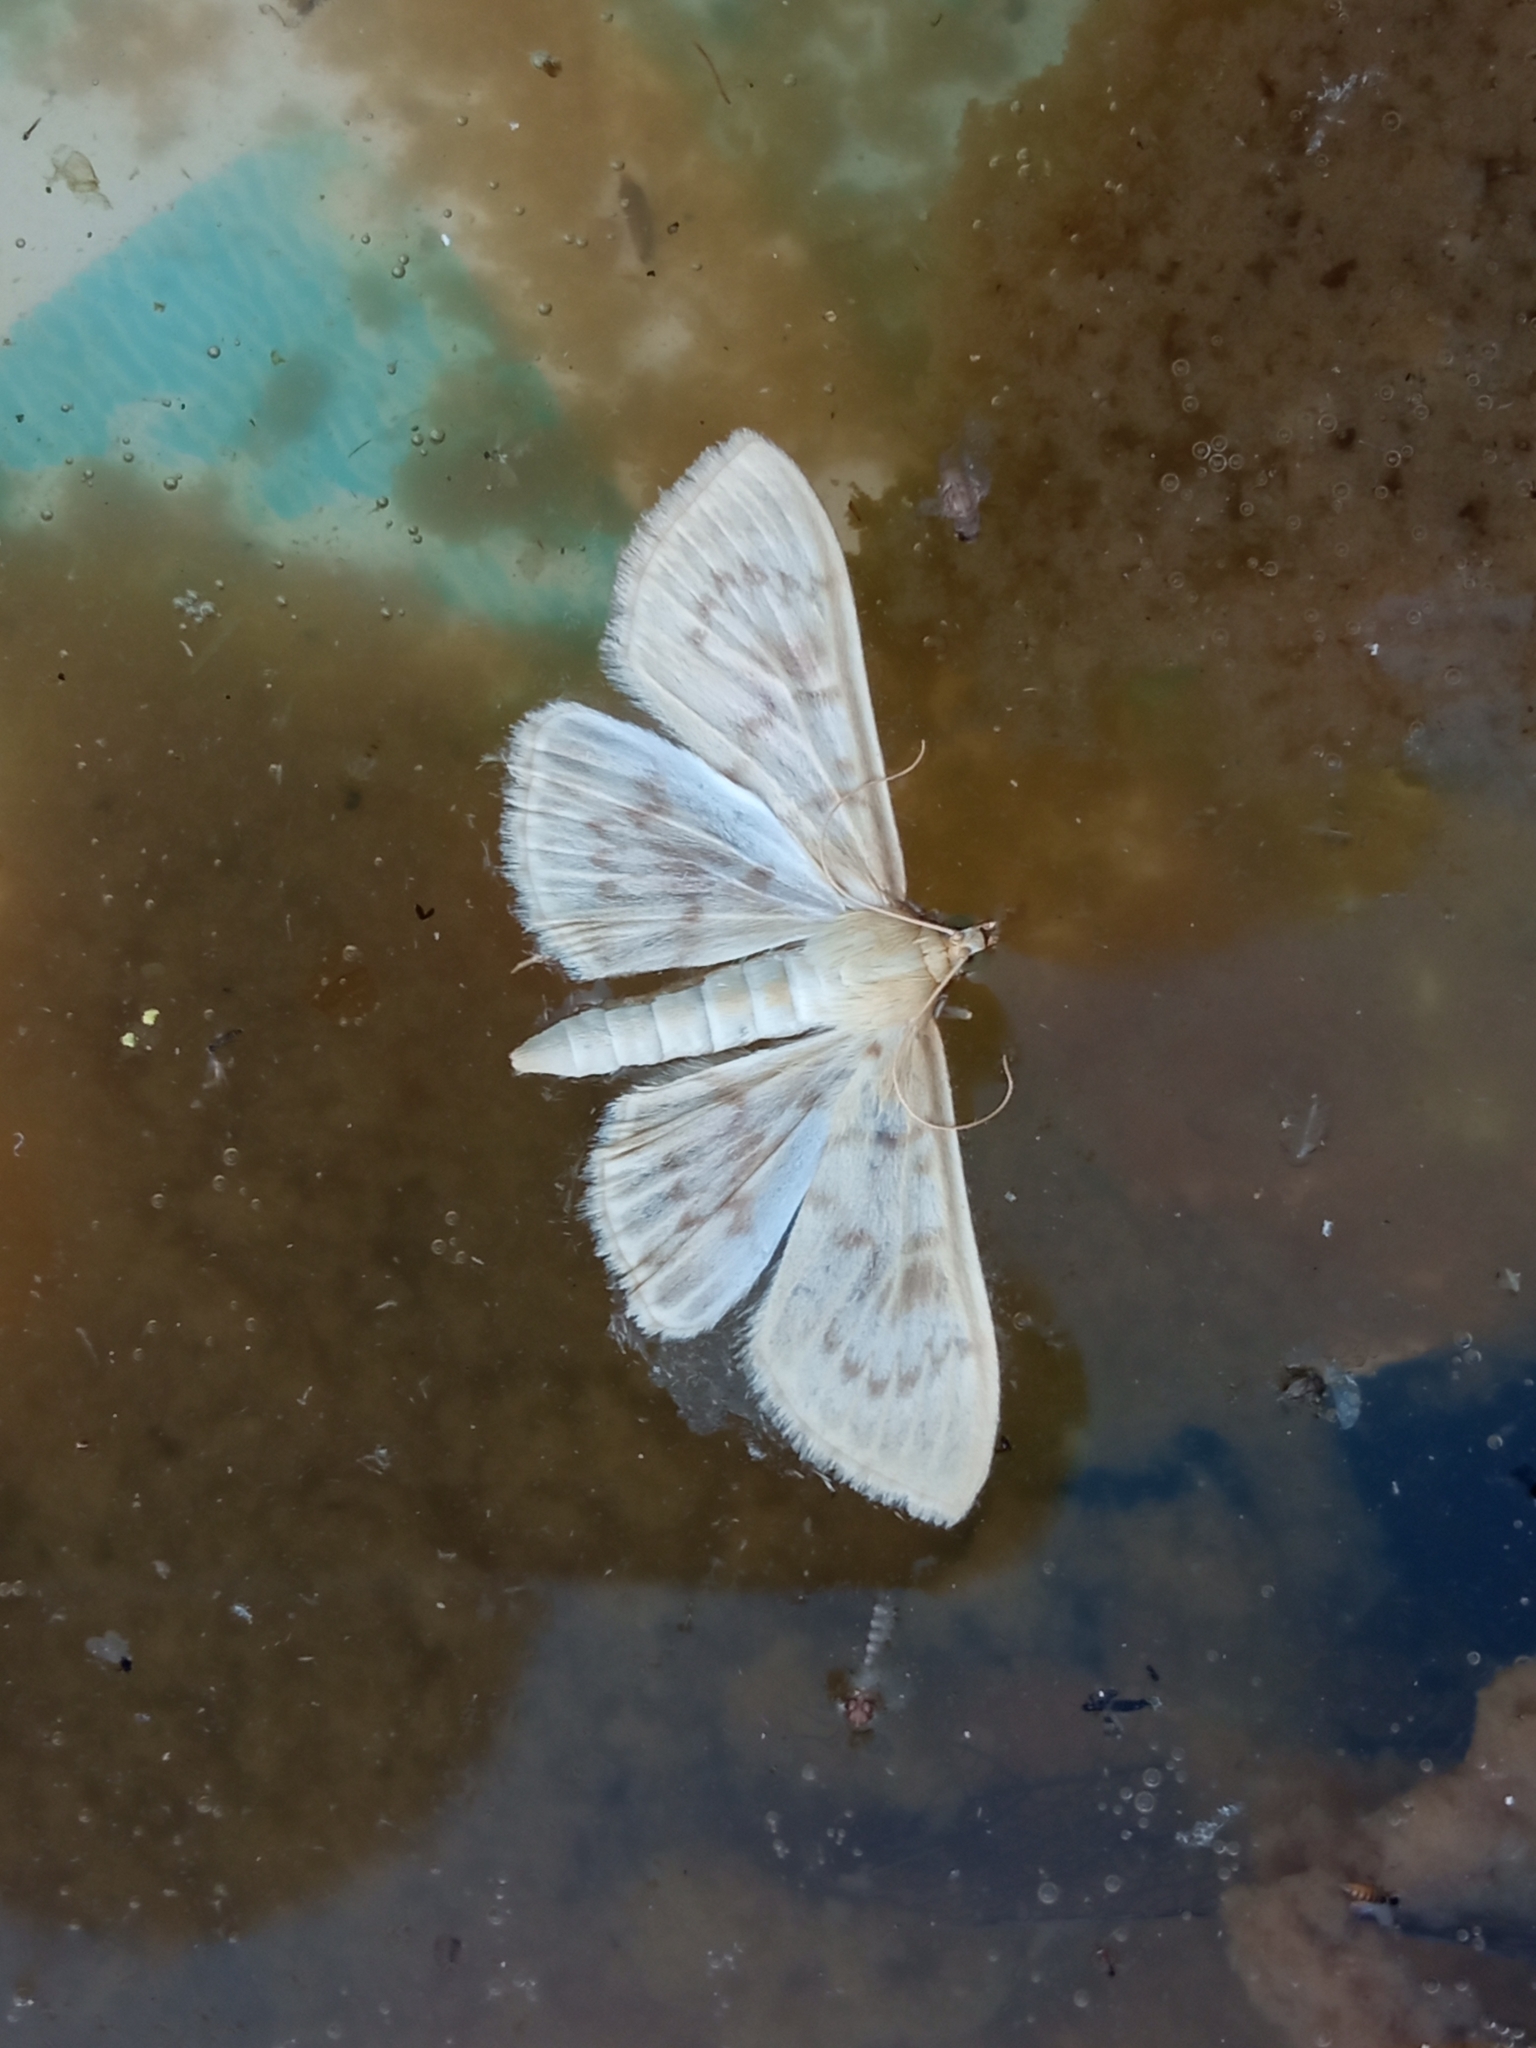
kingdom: Animalia
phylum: Arthropoda
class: Insecta
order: Lepidoptera
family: Crambidae
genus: Patania
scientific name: Patania ruralis
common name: Mother of pearl
